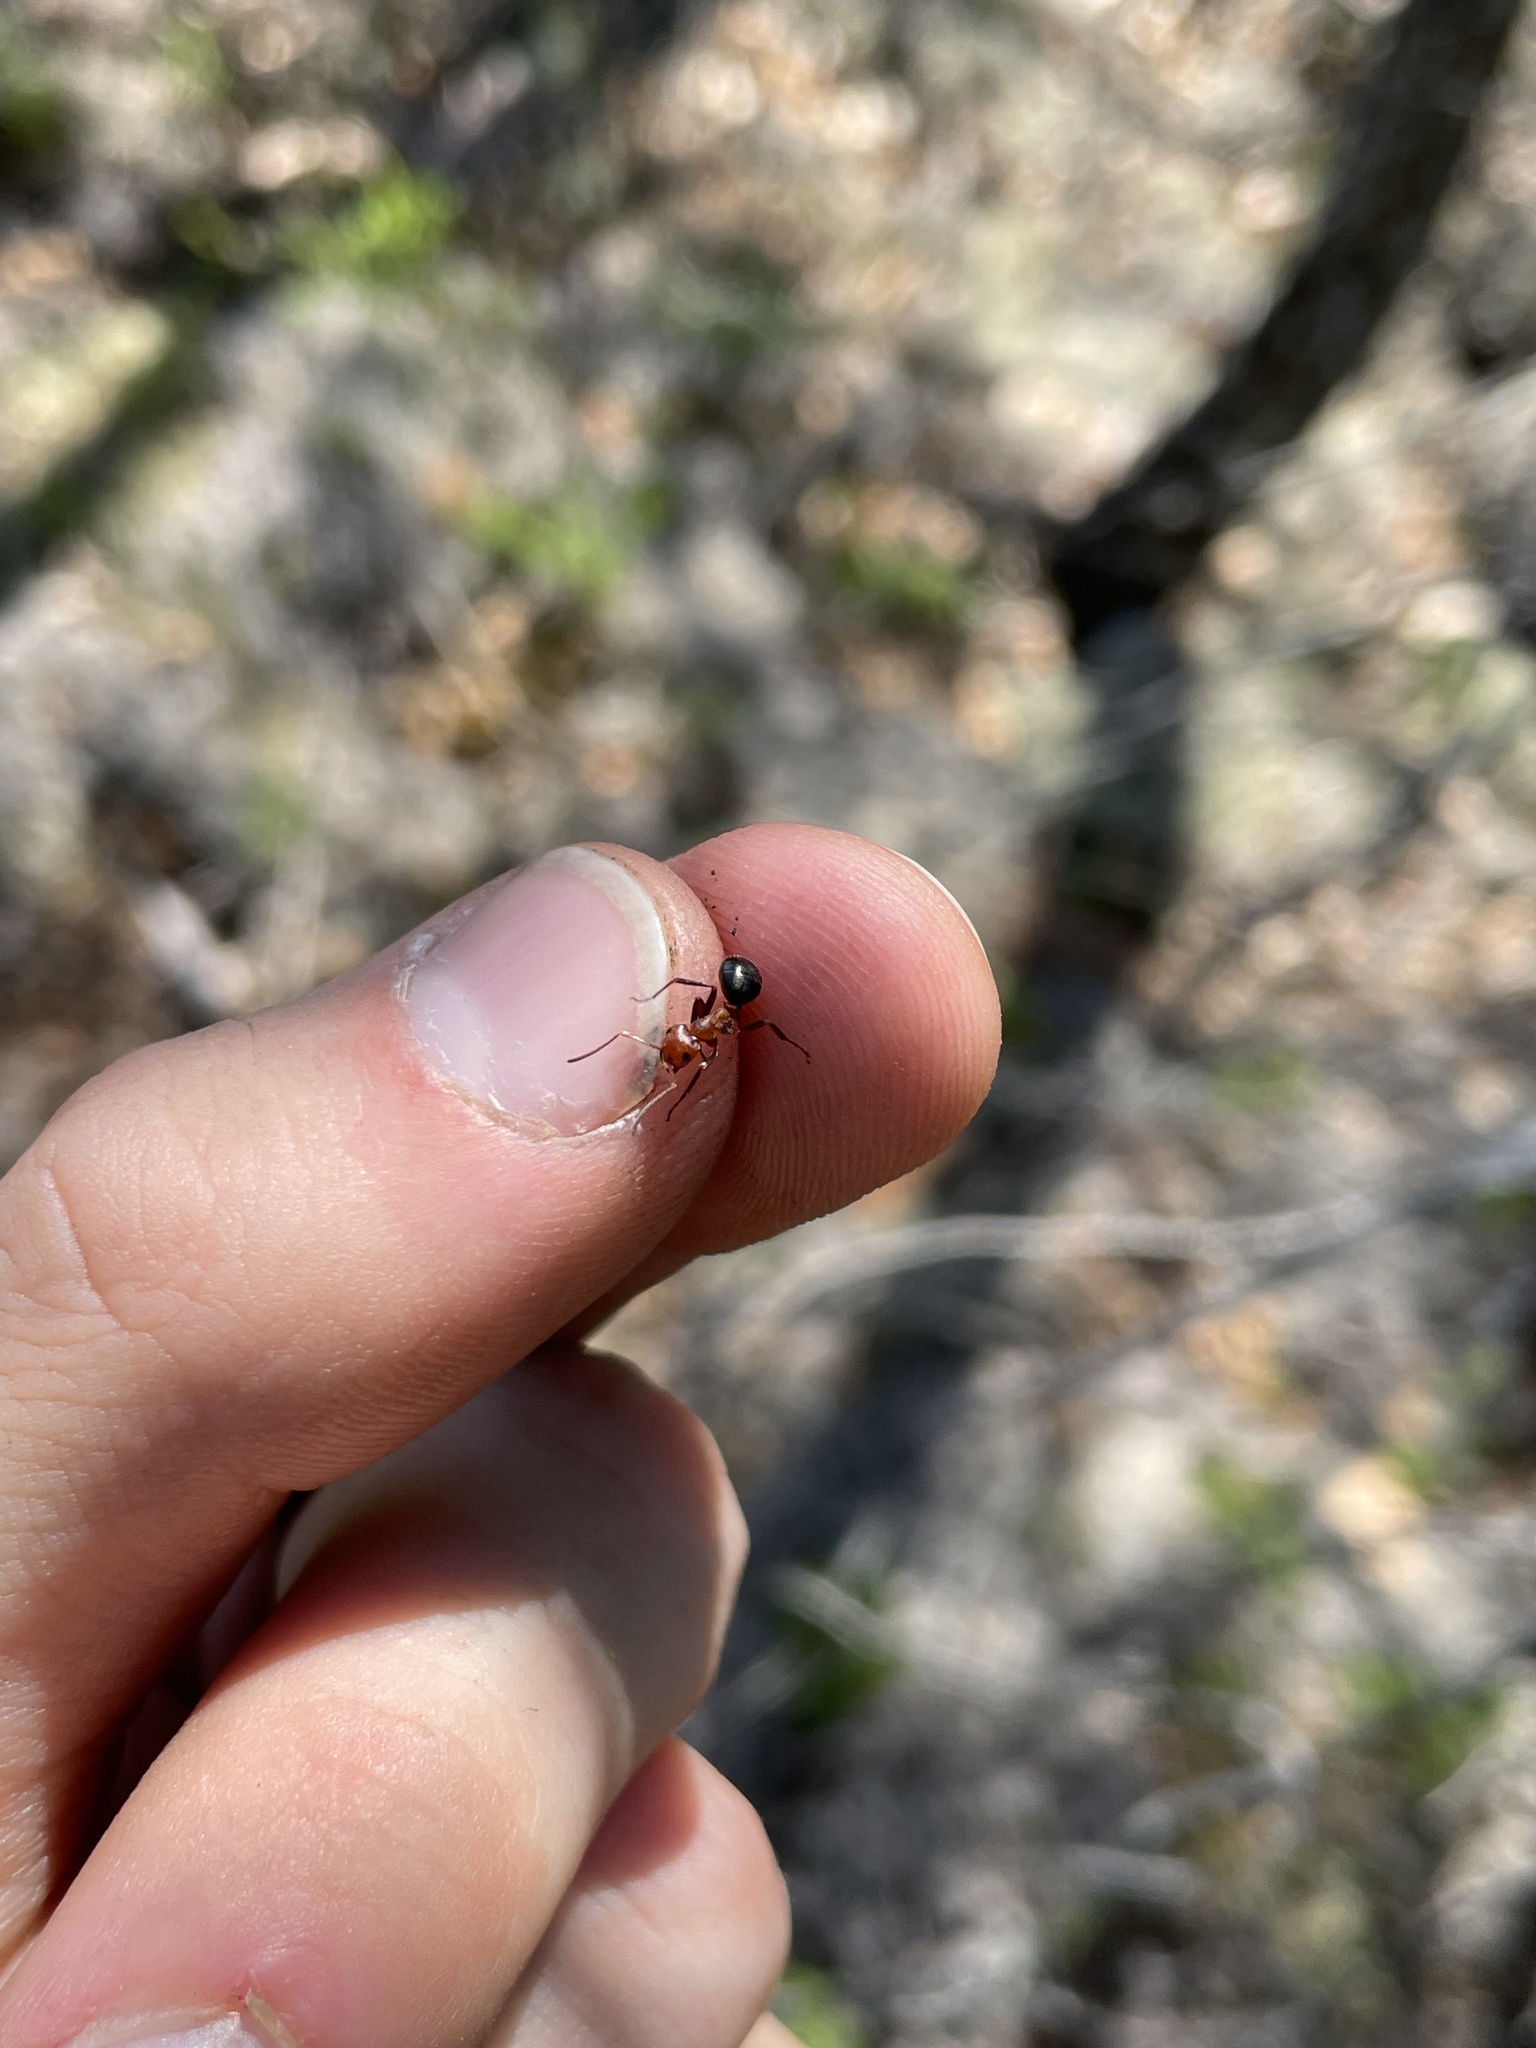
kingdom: Animalia
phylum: Arthropoda
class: Insecta
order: Hymenoptera
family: Formicidae
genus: Formica
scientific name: Formica exsectoides
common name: Allegheny mound ant
